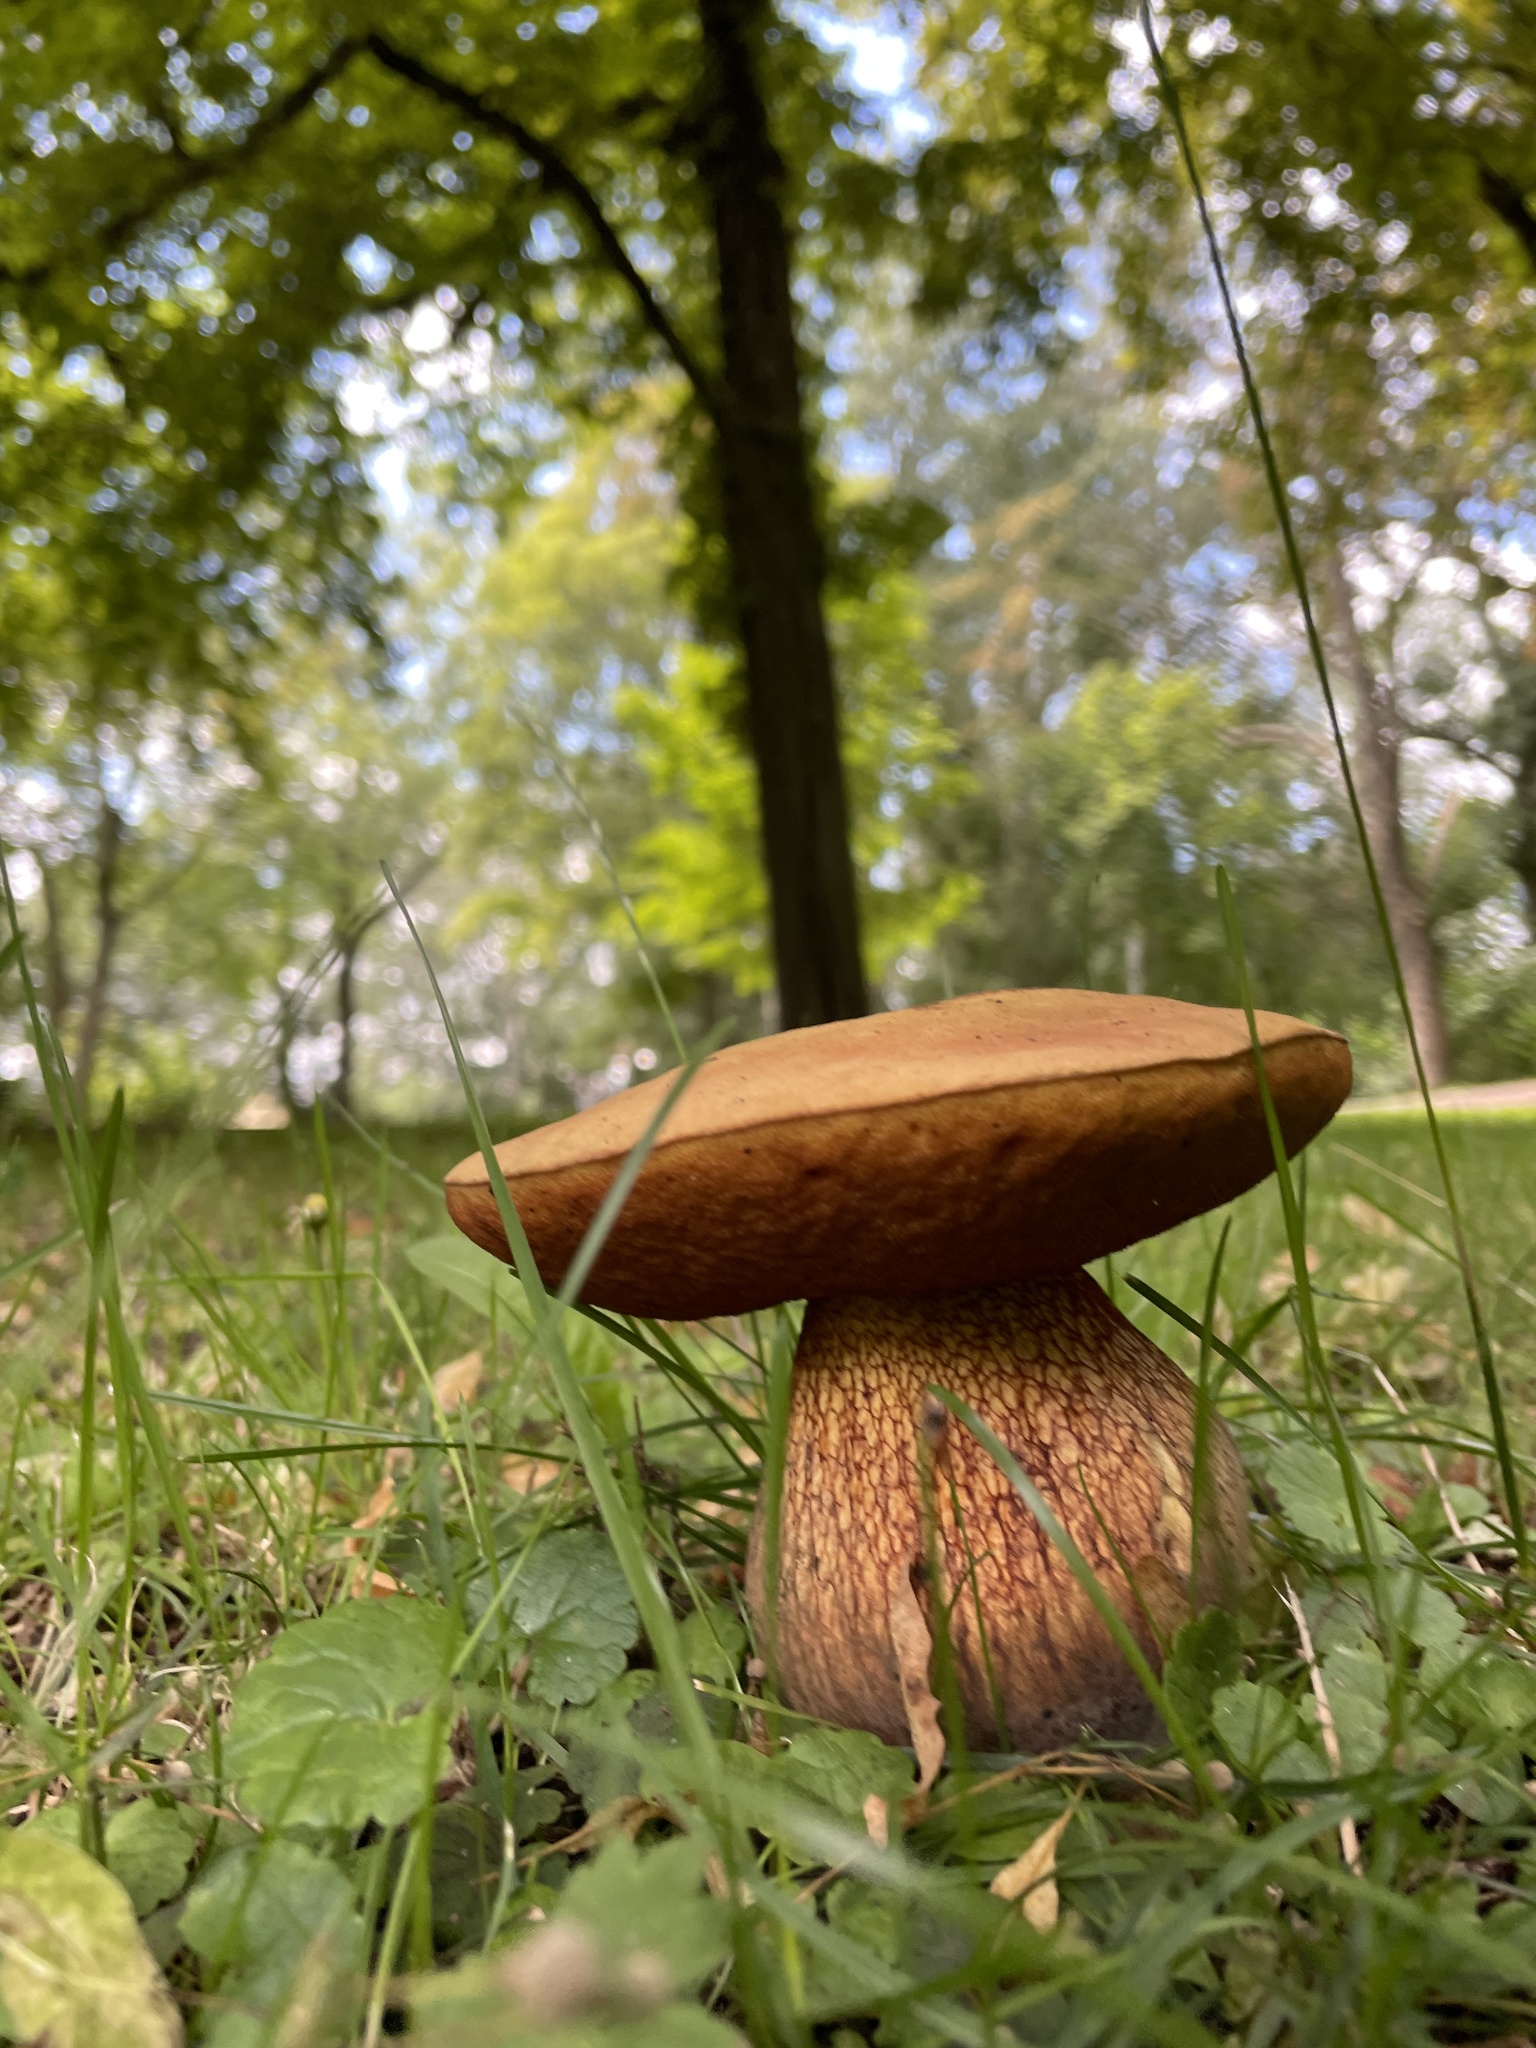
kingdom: Fungi
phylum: Basidiomycota
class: Agaricomycetes
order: Boletales
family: Boletaceae
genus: Suillellus
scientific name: Suillellus luridus
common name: Lurid bolete
